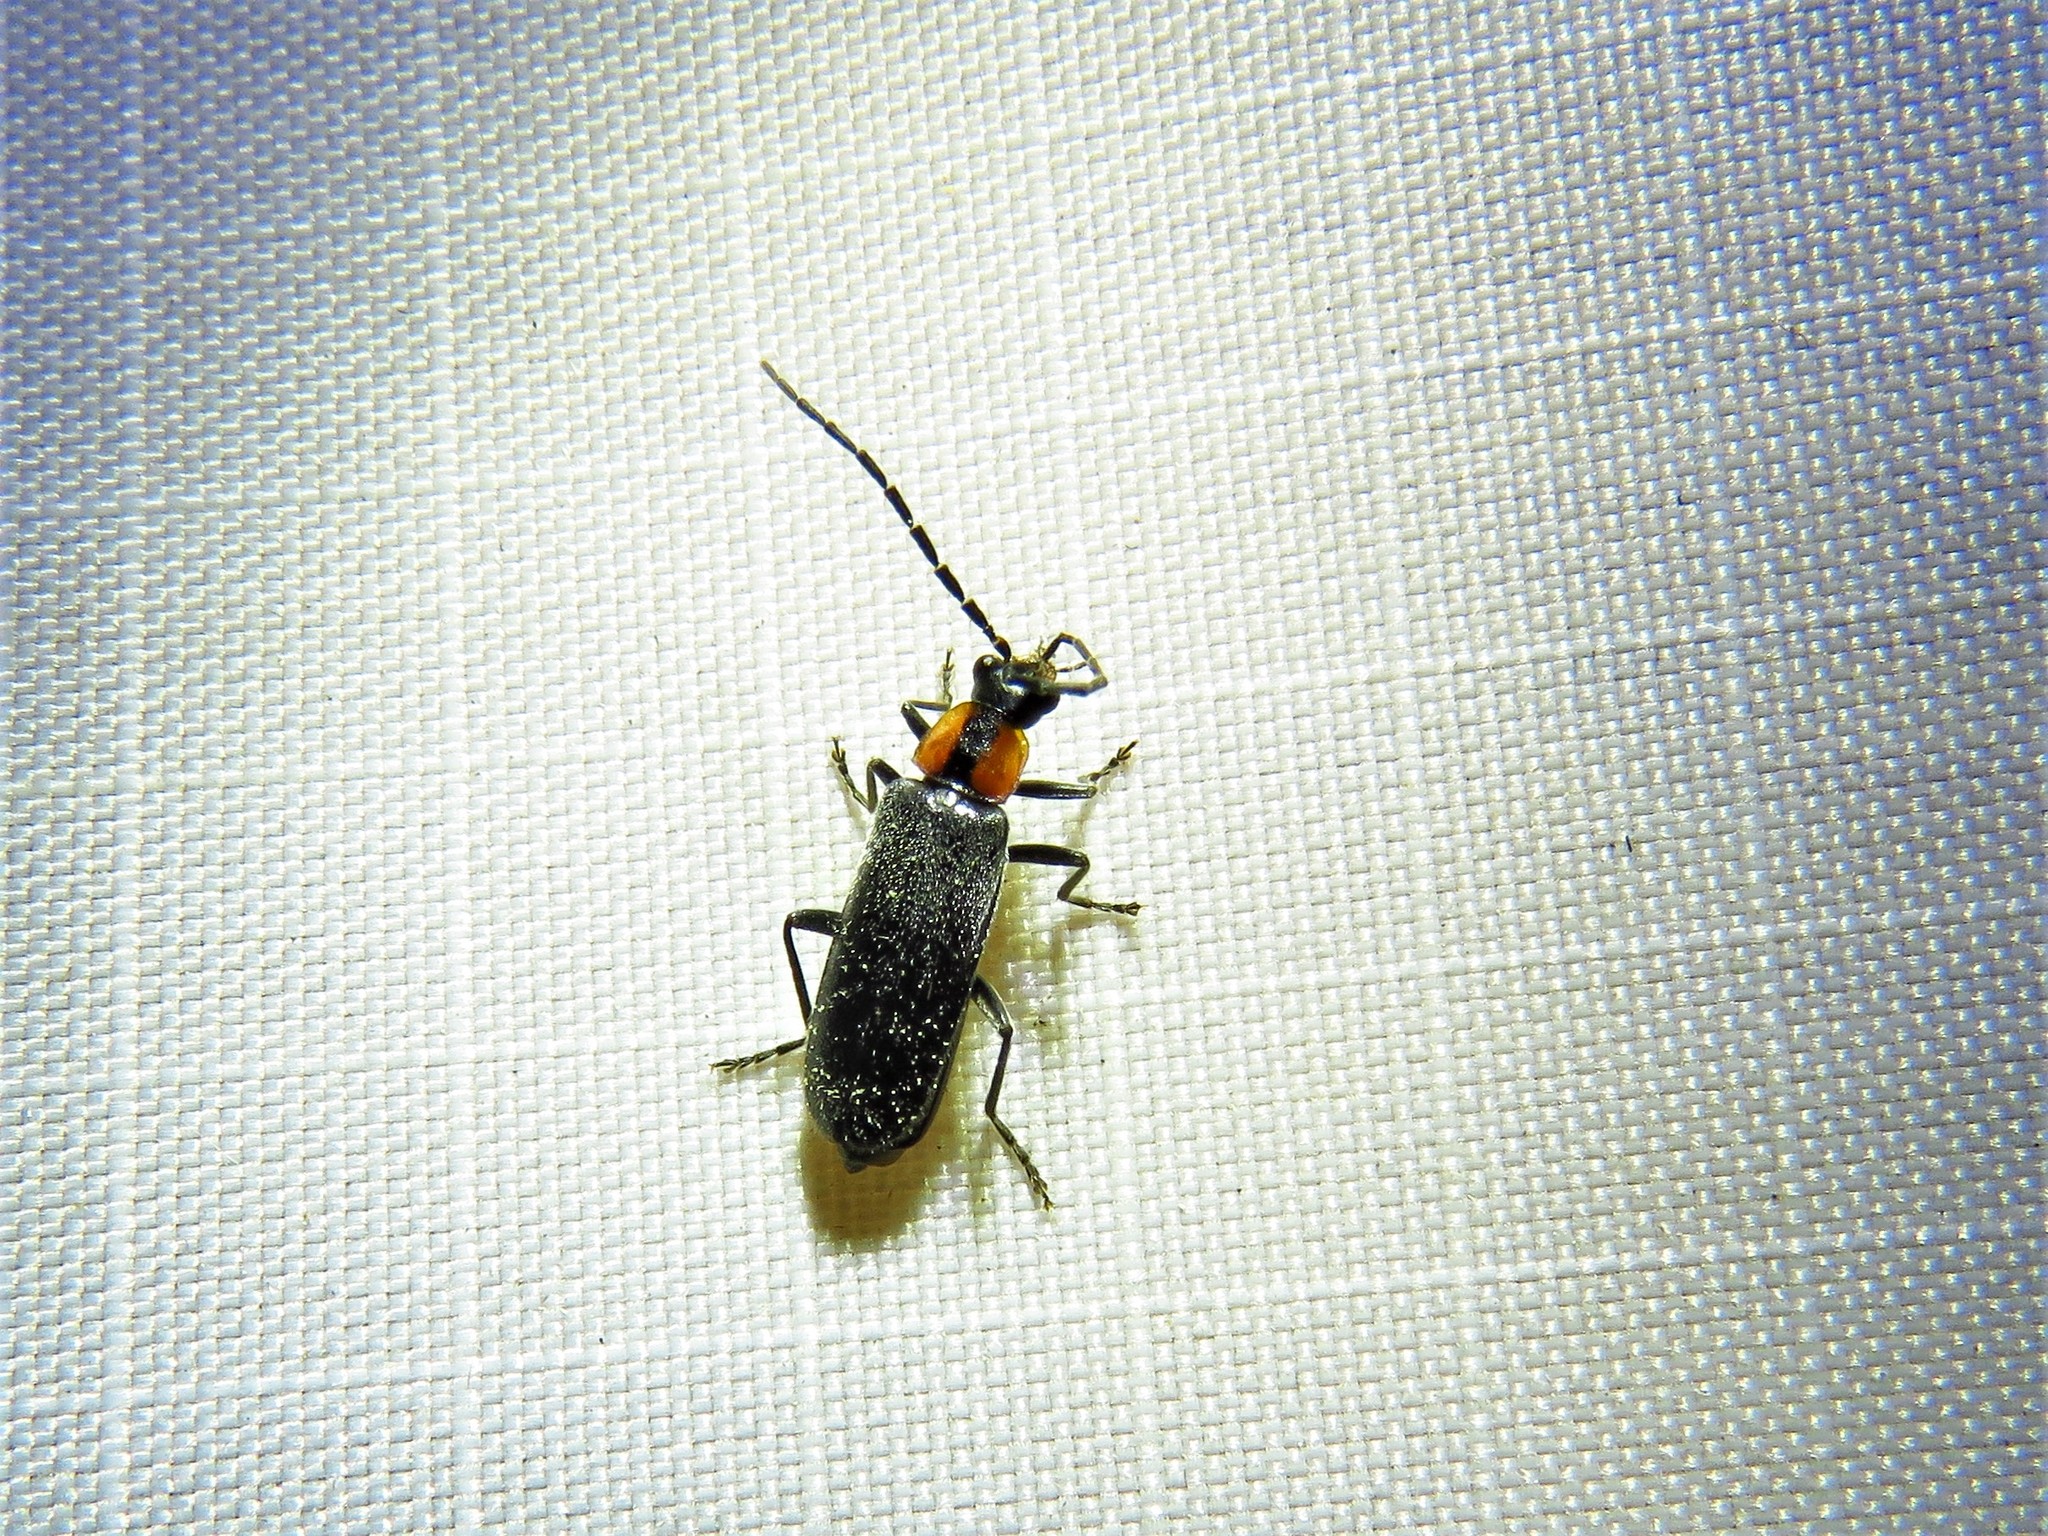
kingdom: Animalia
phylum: Arthropoda
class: Insecta
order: Coleoptera
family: Cantharidae
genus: Rhagonycha
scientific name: Rhagonycha lineola
